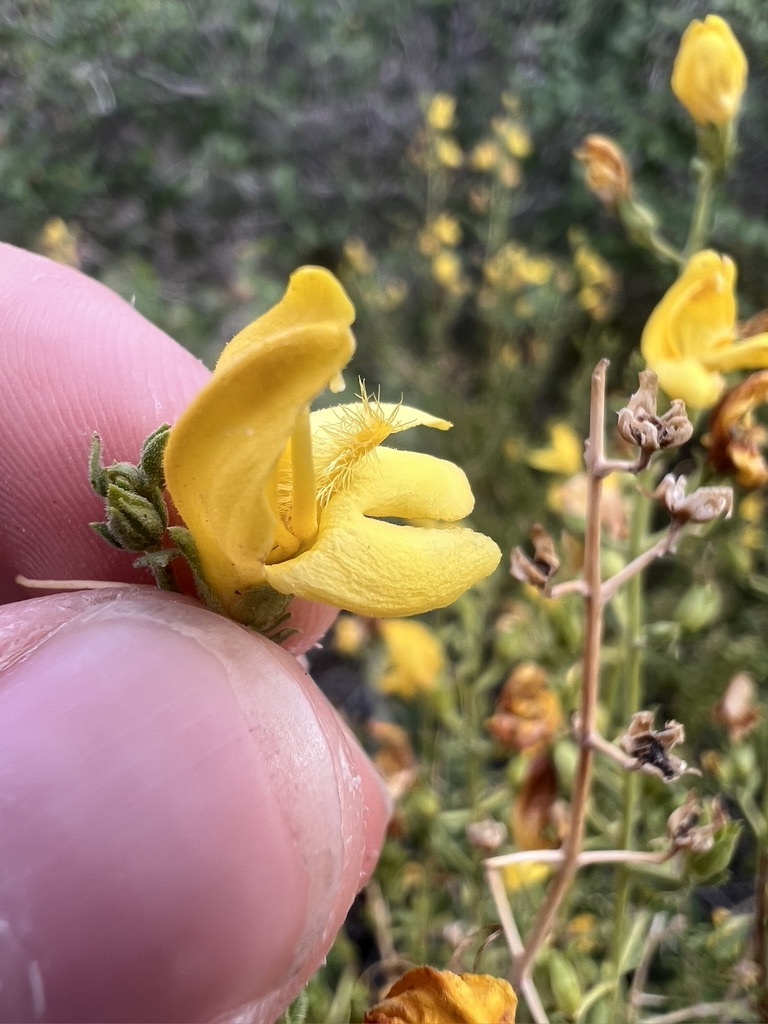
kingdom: Plantae
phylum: Tracheophyta
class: Magnoliopsida
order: Lamiales
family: Plantaginaceae
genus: Keckiella
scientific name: Keckiella antirrhinoides
